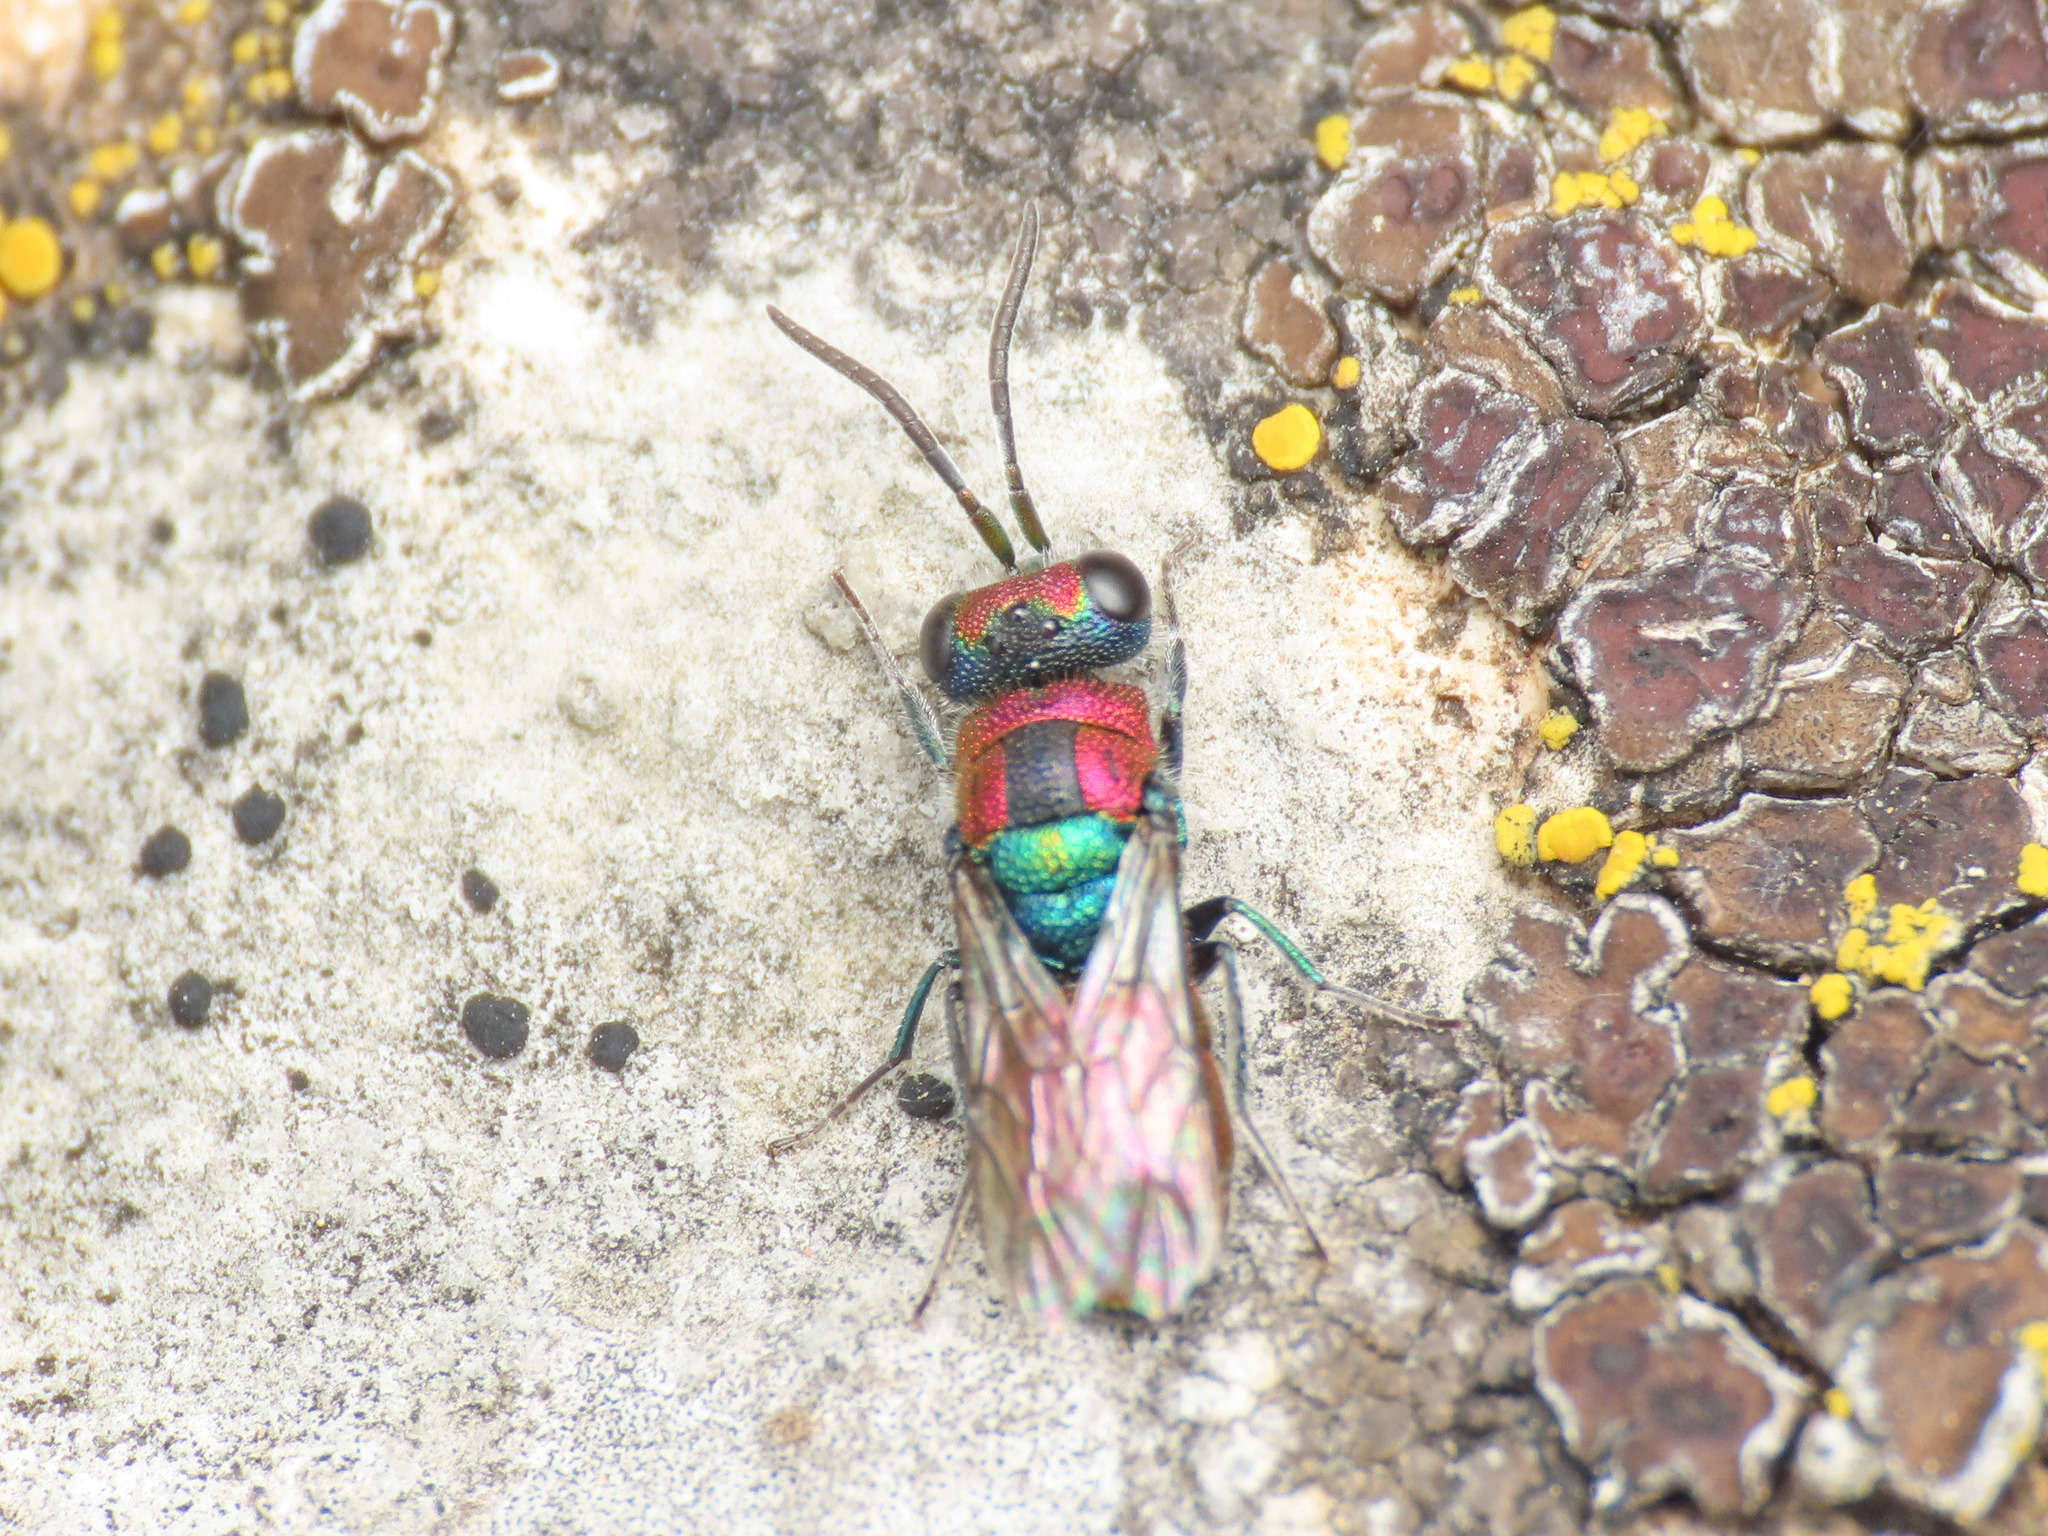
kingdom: Animalia
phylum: Arthropoda
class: Insecta
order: Hymenoptera
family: Chrysididae
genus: Chrysura
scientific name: Chrysura candens
